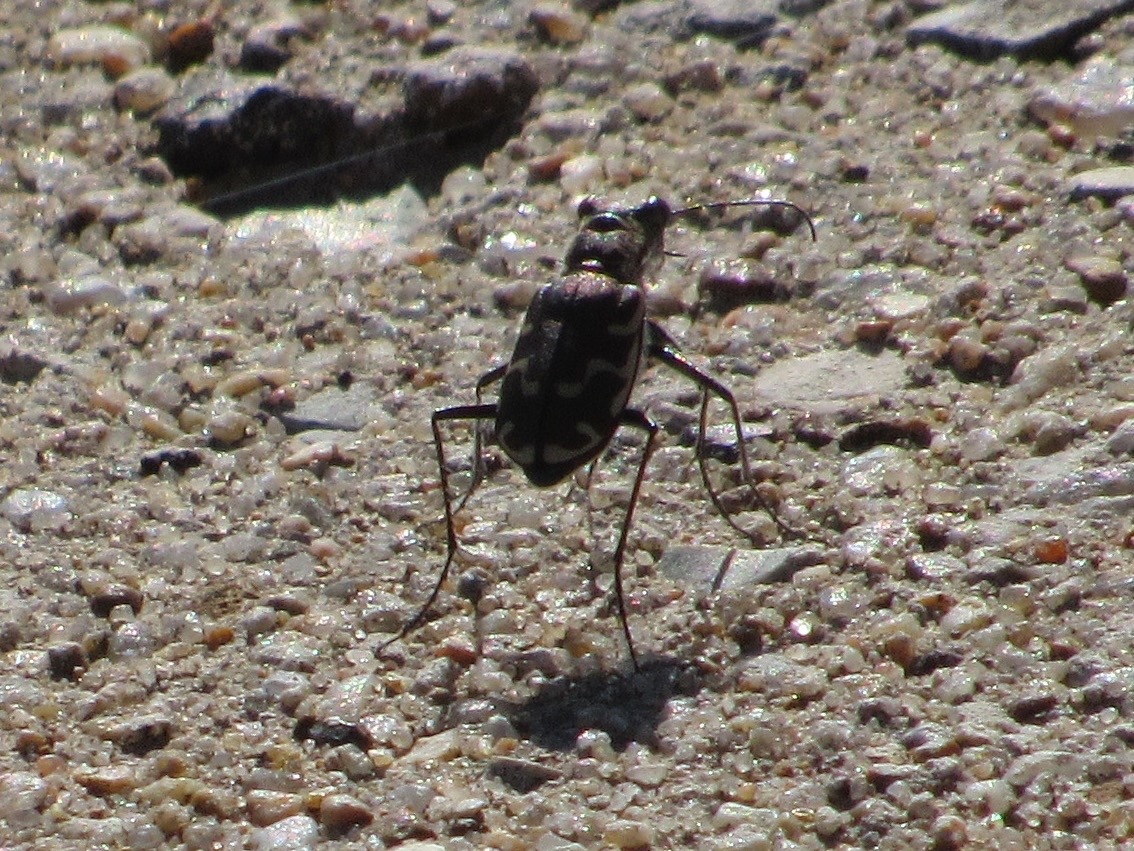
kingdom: Animalia
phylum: Arthropoda
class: Insecta
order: Coleoptera
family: Carabidae
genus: Cicindela
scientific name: Cicindela repanda
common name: Bronzed tiger beetle
